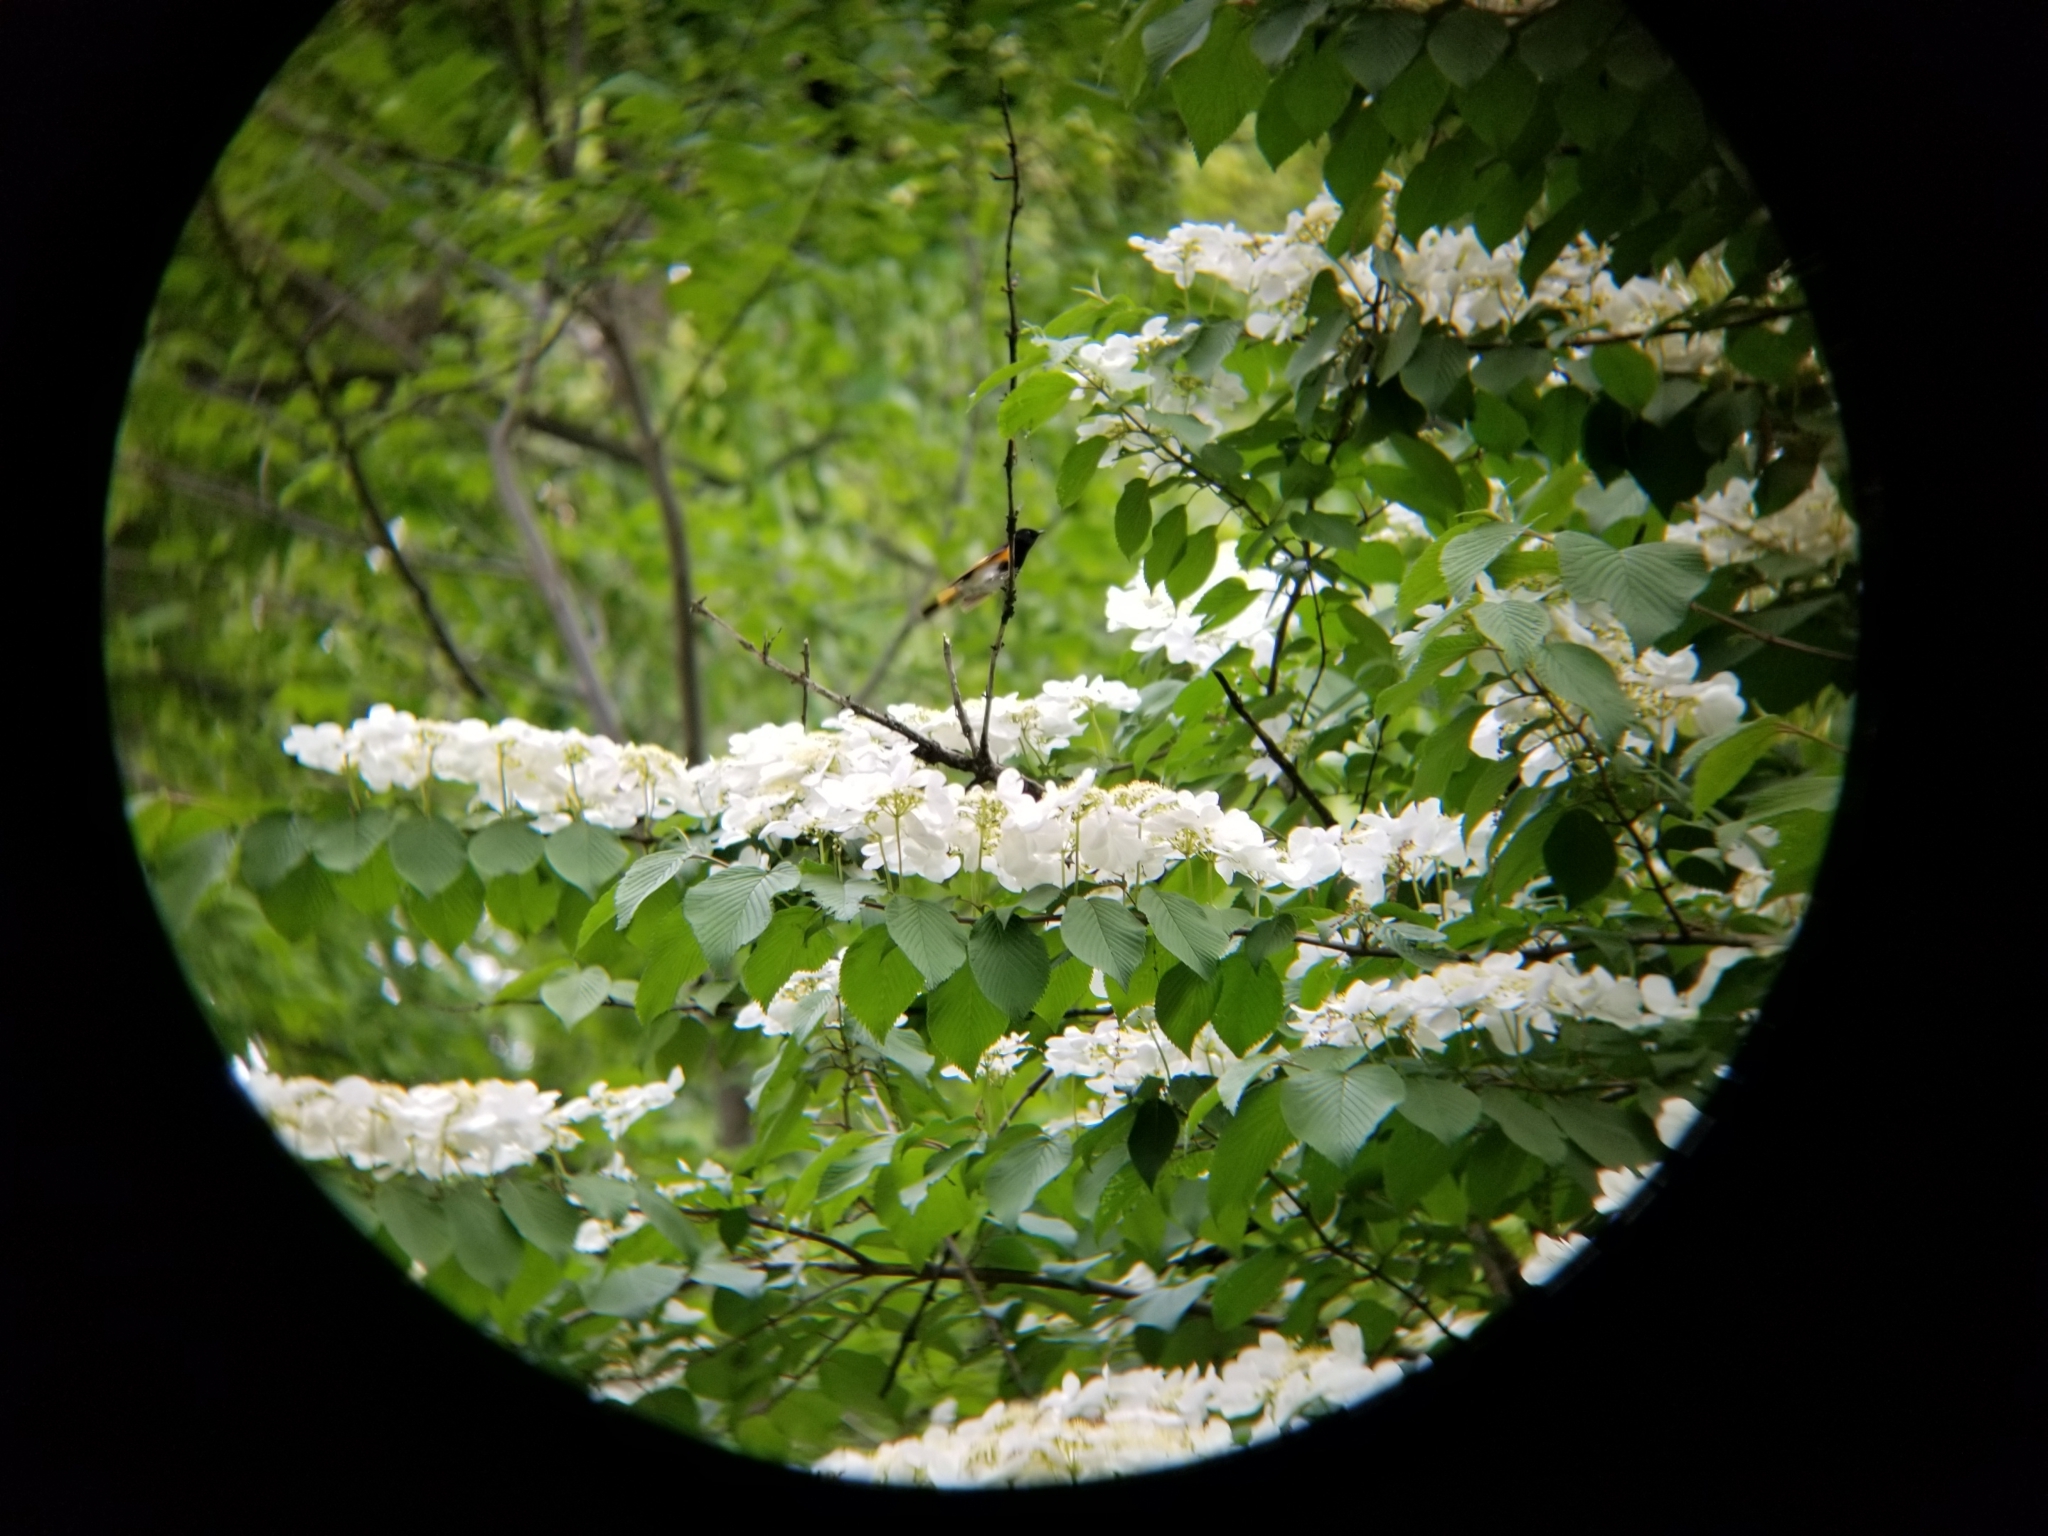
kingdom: Animalia
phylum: Chordata
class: Aves
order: Passeriformes
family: Parulidae
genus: Setophaga
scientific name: Setophaga ruticilla
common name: American redstart
